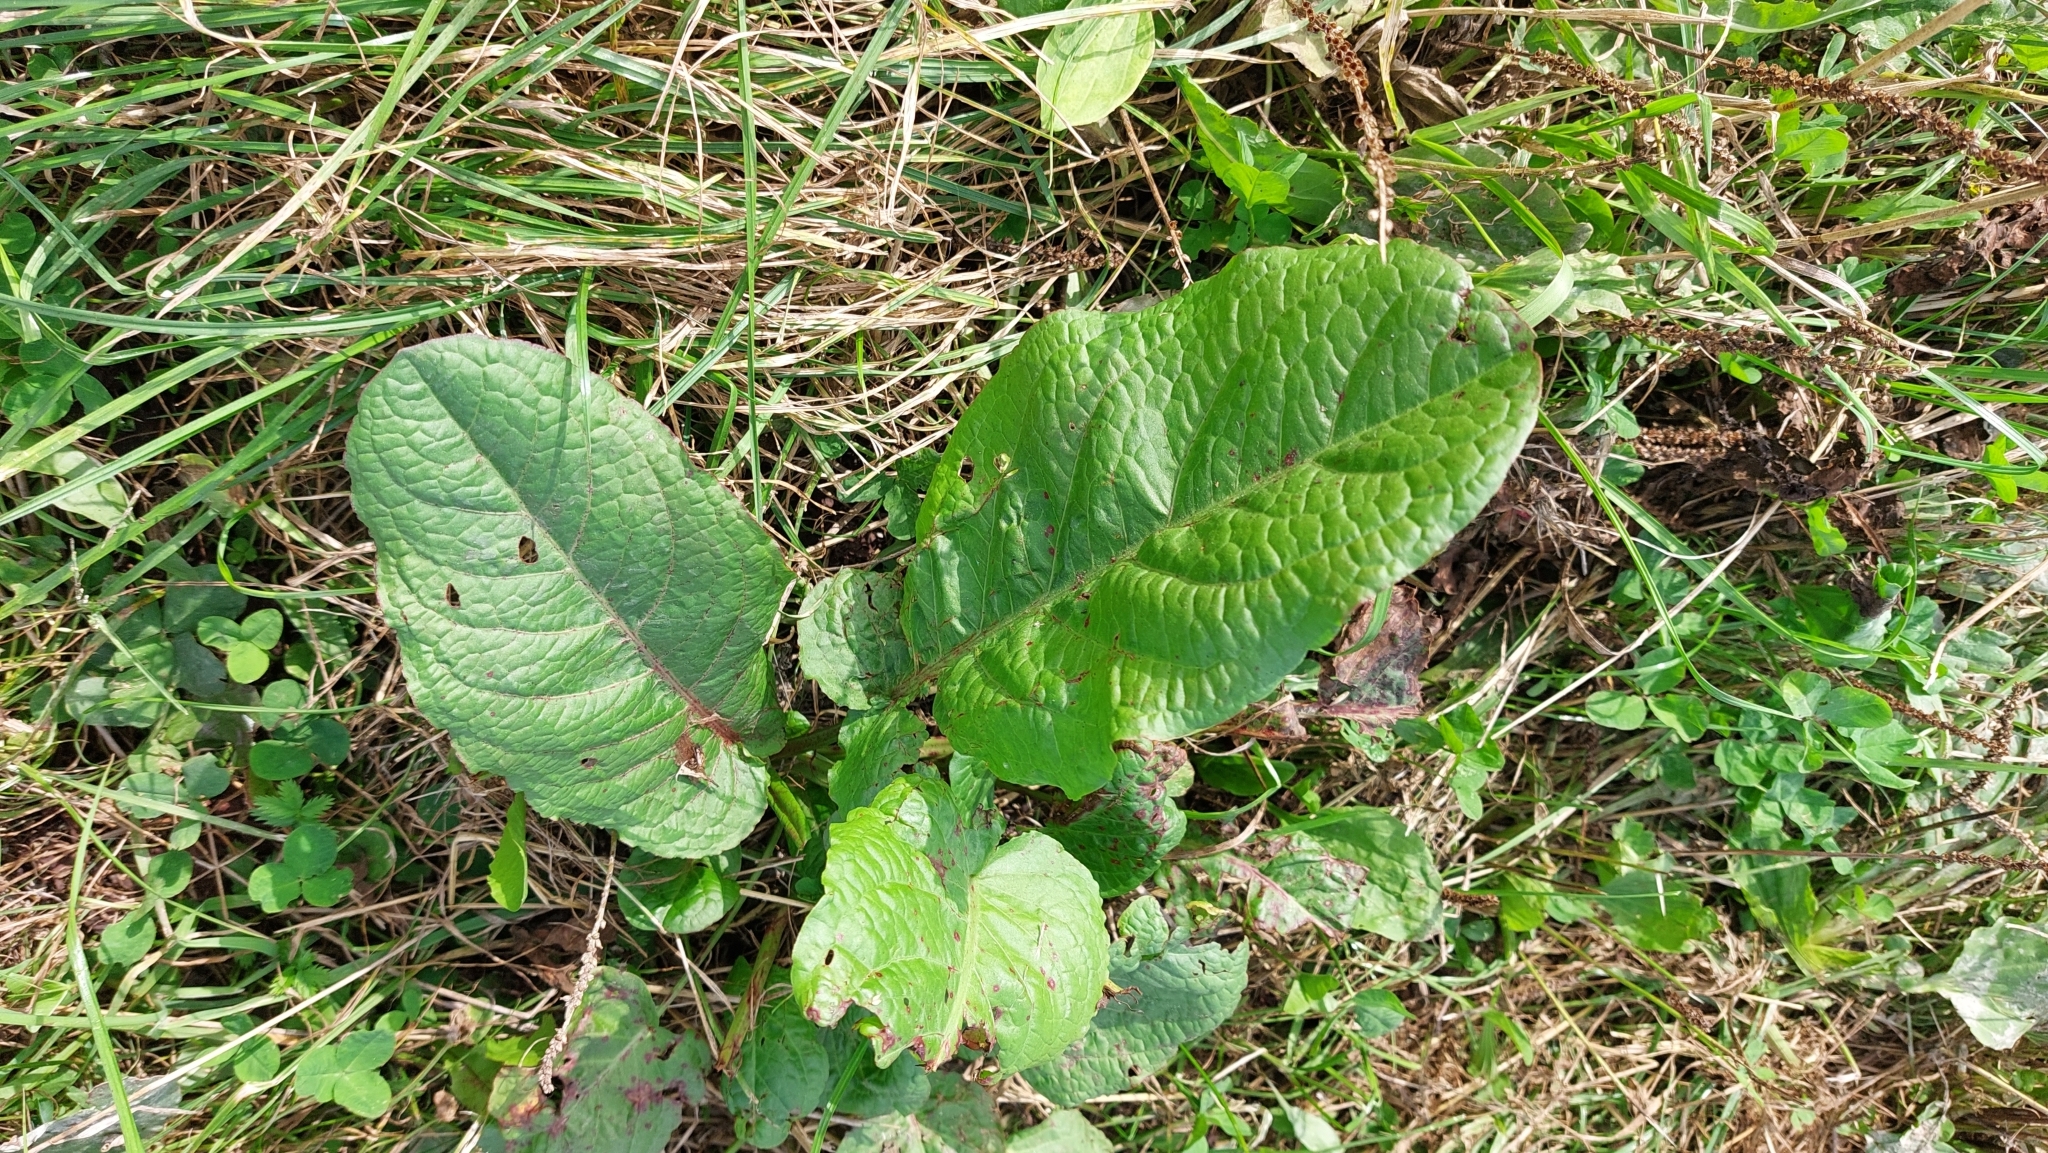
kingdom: Plantae
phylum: Tracheophyta
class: Magnoliopsida
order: Caryophyllales
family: Polygonaceae
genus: Rumex
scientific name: Rumex obtusifolius
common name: Bitter dock
